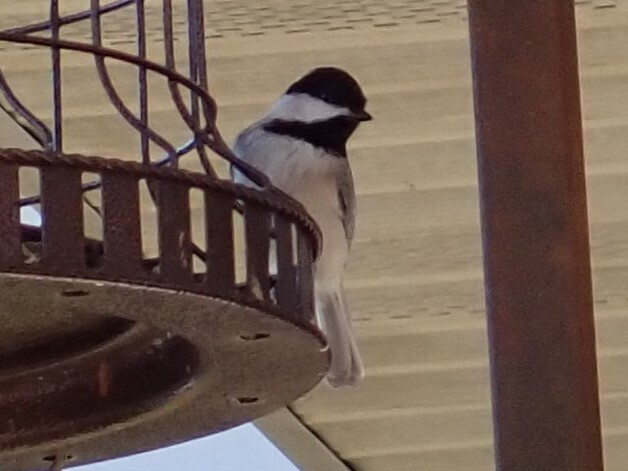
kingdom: Animalia
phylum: Chordata
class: Aves
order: Passeriformes
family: Paridae
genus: Poecile
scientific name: Poecile carolinensis
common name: Carolina chickadee
